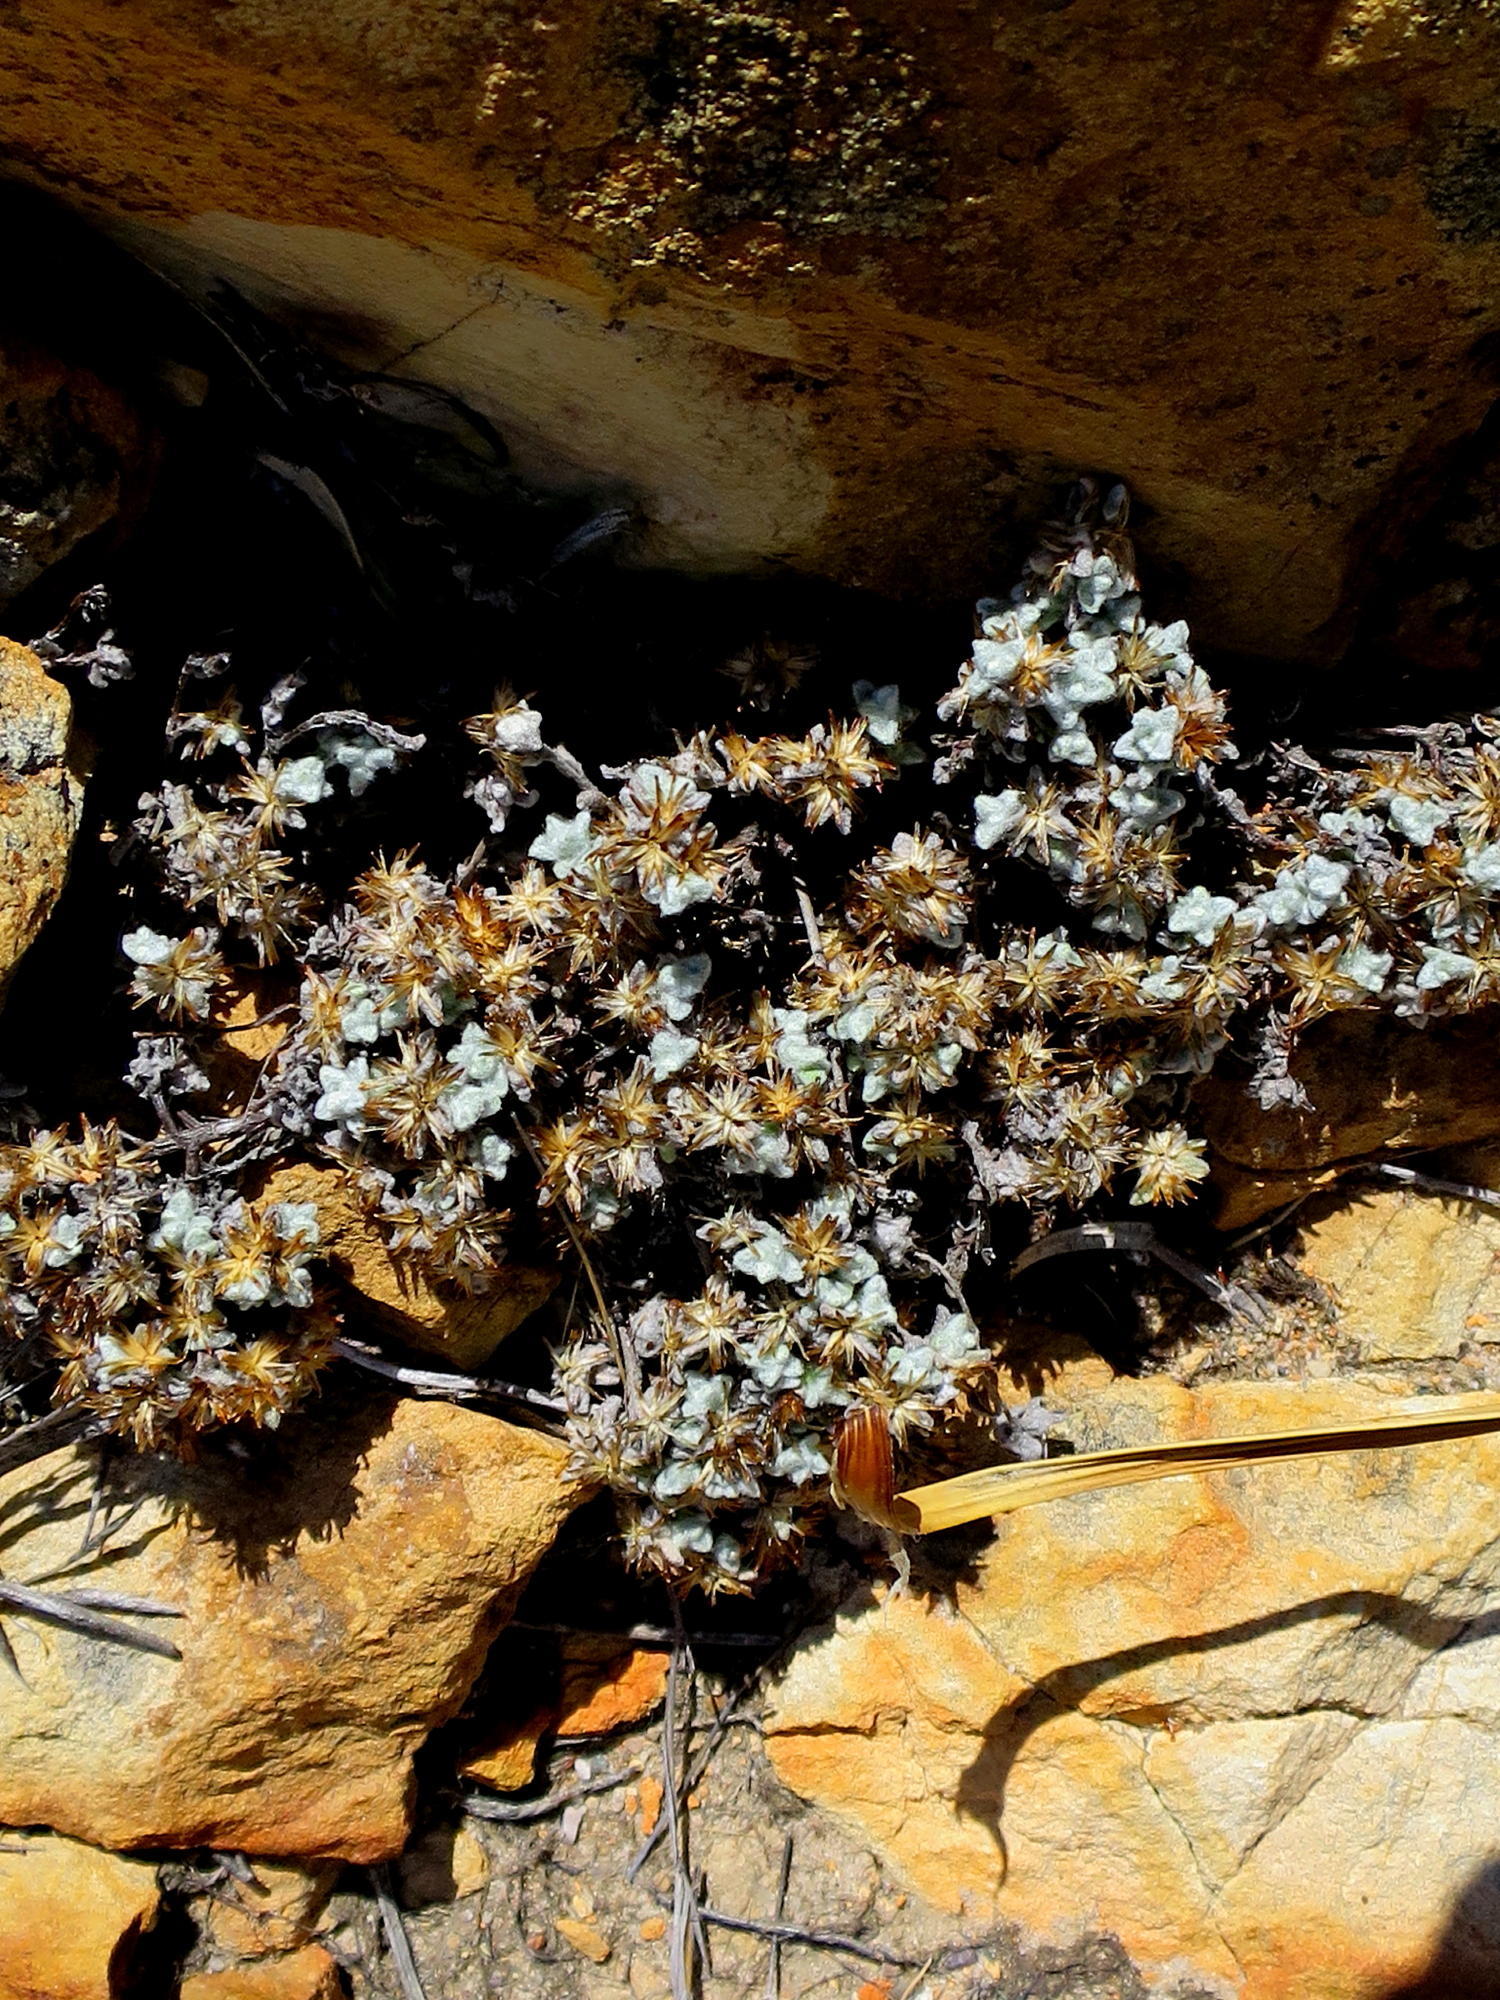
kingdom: Plantae
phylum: Tracheophyta
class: Magnoliopsida
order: Asterales
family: Asteraceae
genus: Helichrysum
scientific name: Helichrysum saxicola
